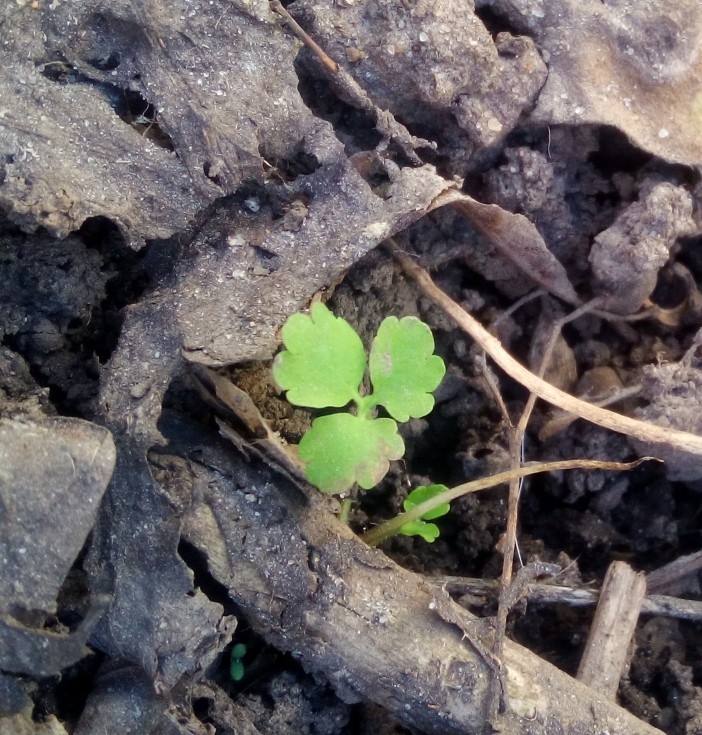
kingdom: Plantae
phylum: Tracheophyta
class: Magnoliopsida
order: Ranunculales
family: Papaveraceae
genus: Chelidonium
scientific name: Chelidonium majus
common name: Greater celandine
